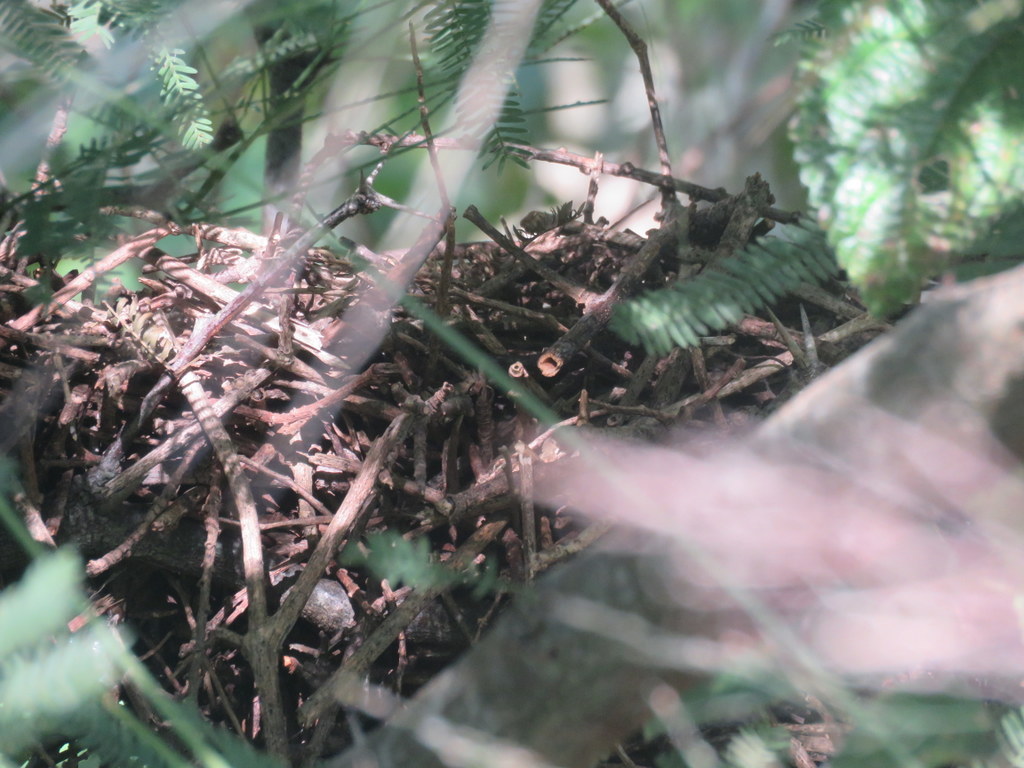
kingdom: Animalia
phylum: Chordata
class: Aves
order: Passeriformes
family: Furnariidae
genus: Synallaxis
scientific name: Synallaxis frontalis
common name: Sooty-fronted spinetail
